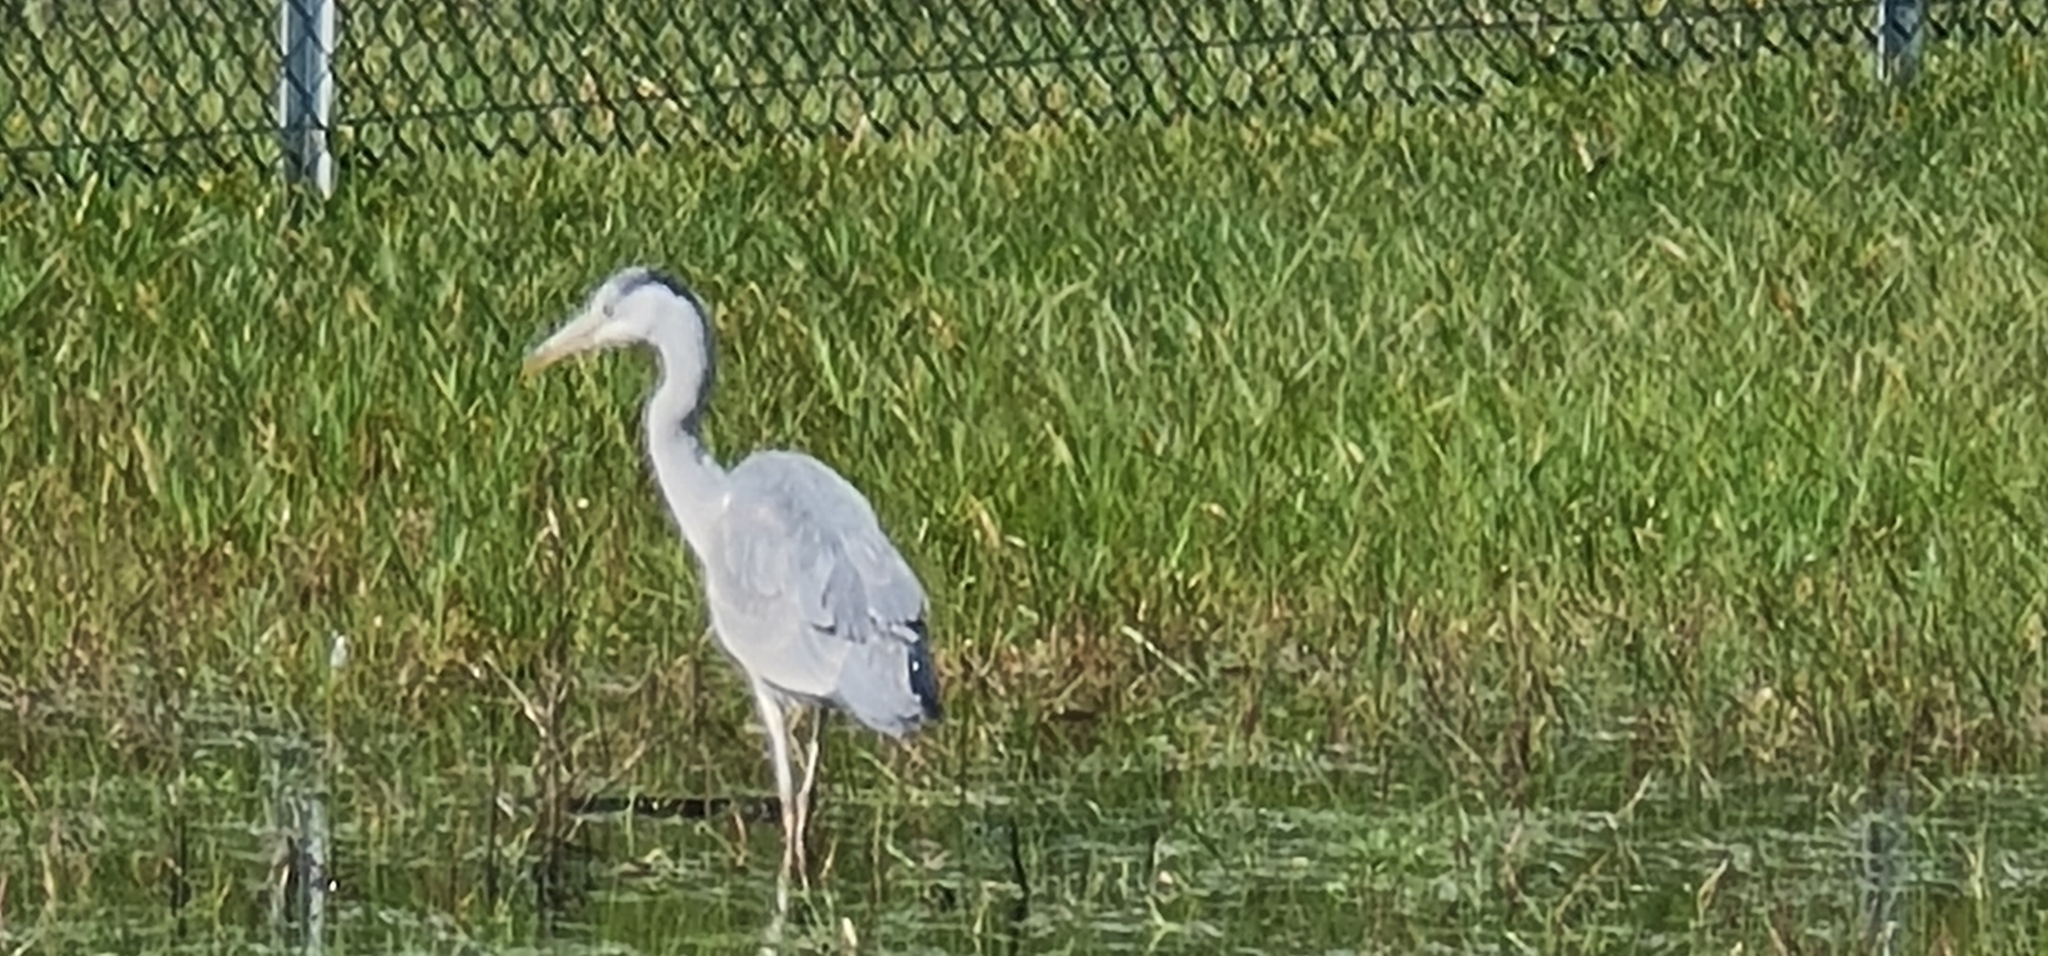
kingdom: Animalia
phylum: Chordata
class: Aves
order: Pelecaniformes
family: Ardeidae
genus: Ardea
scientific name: Ardea cinerea
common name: Grey heron
